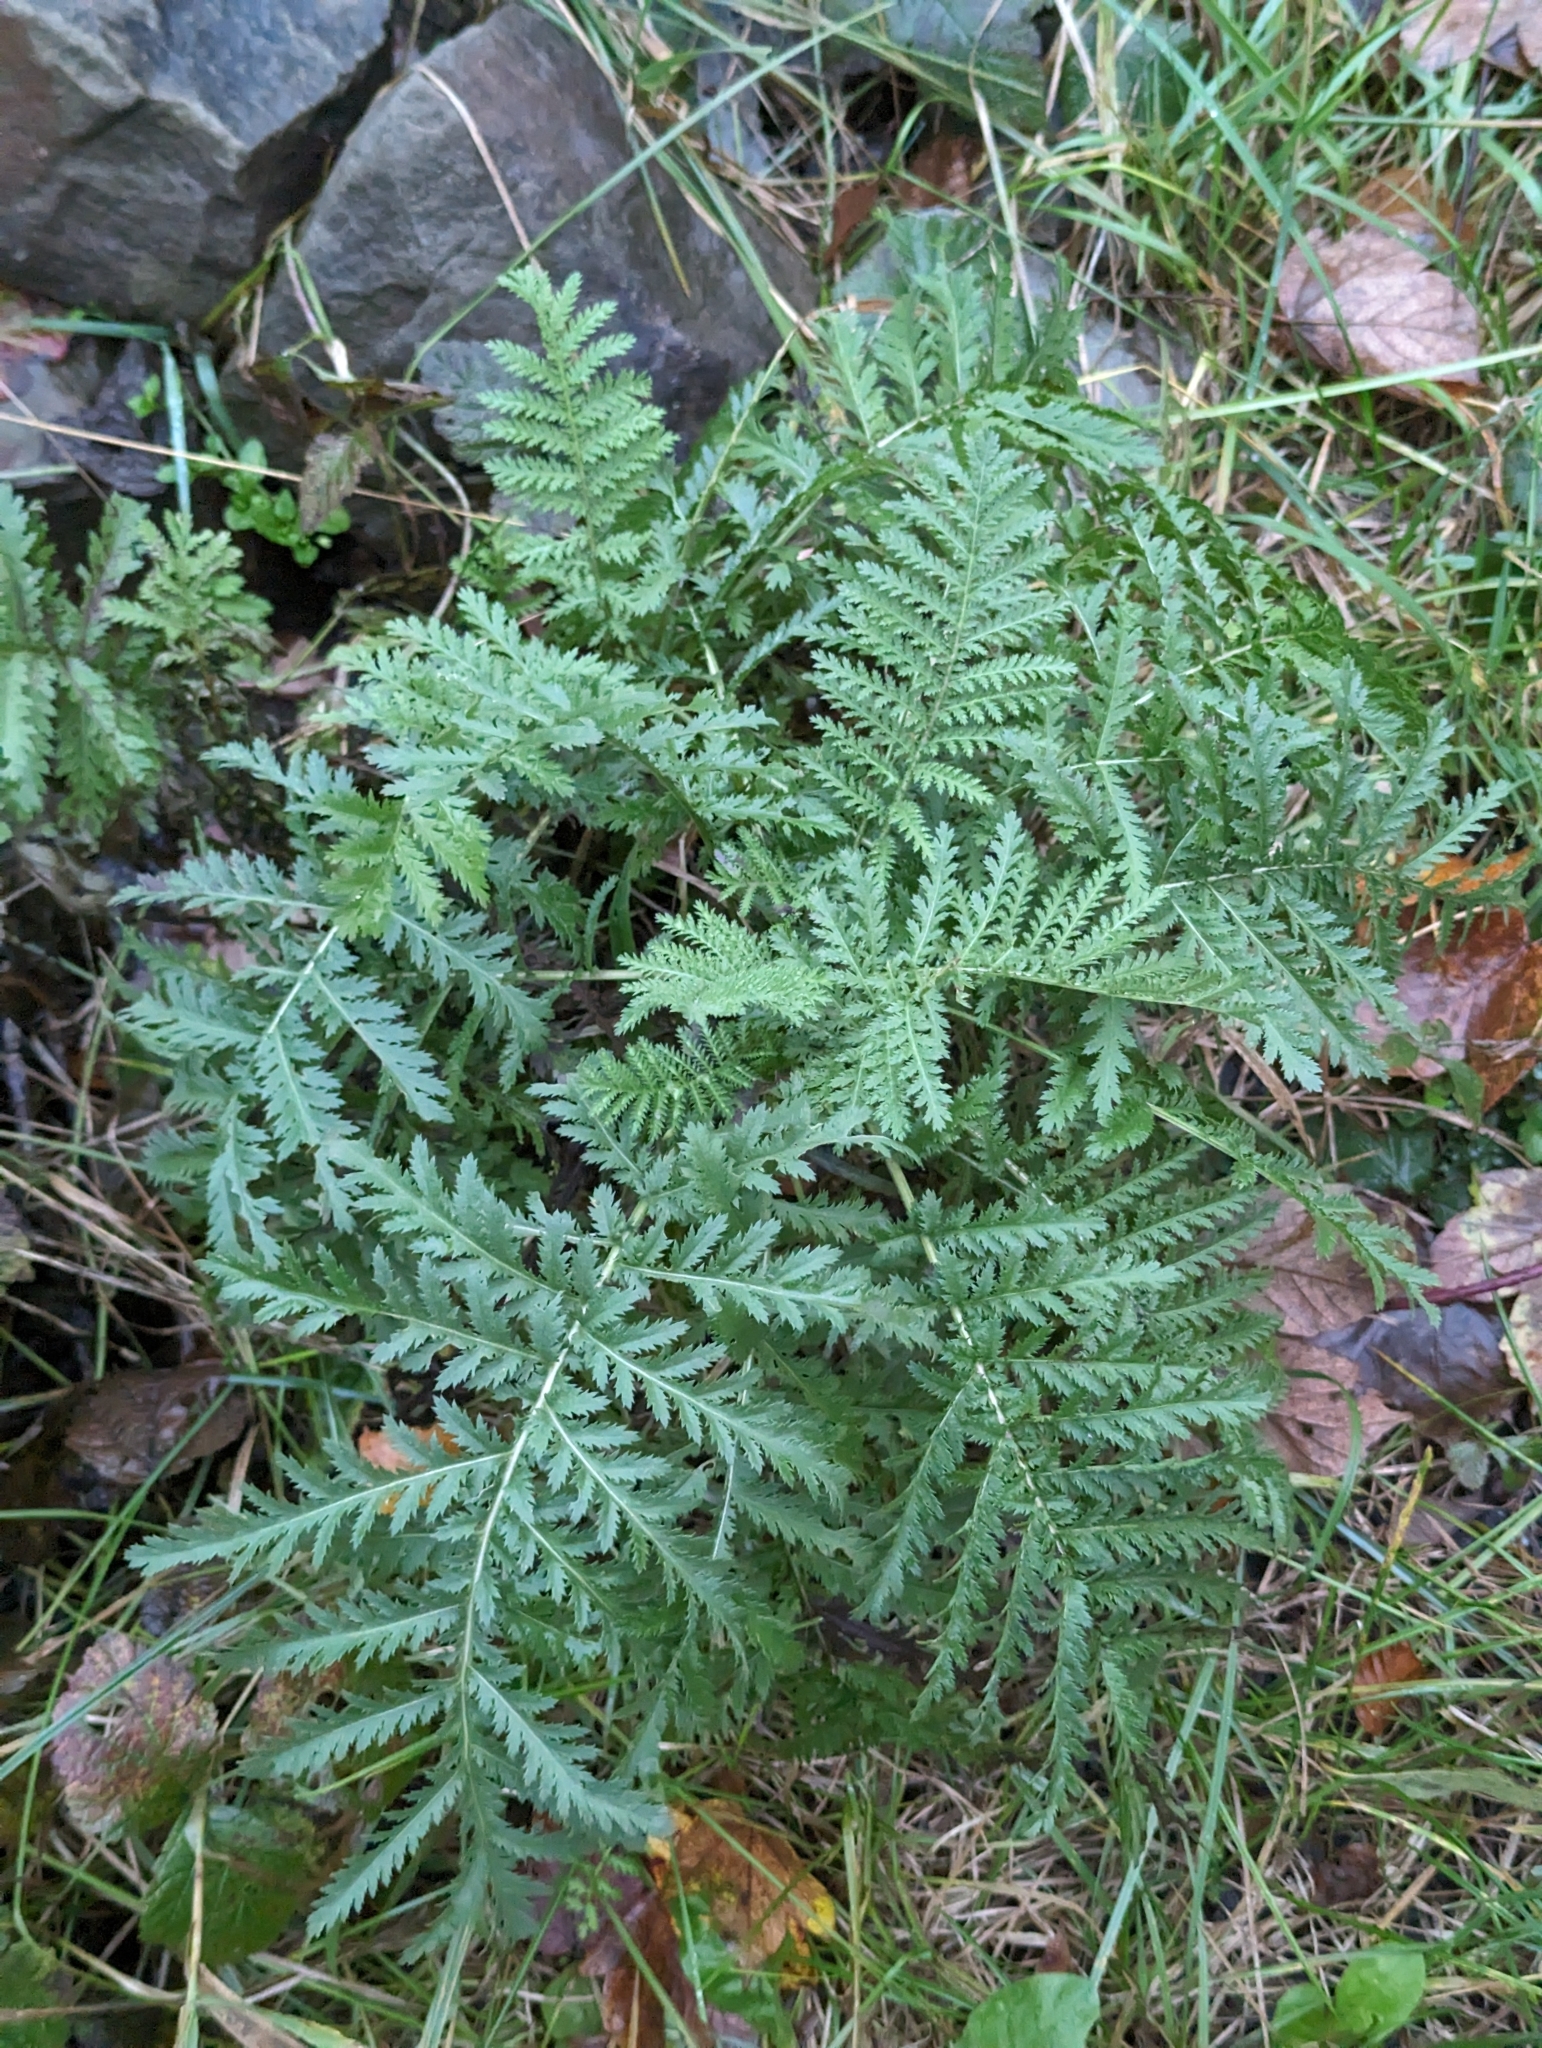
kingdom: Plantae
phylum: Tracheophyta
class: Magnoliopsida
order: Asterales
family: Asteraceae
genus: Tanacetum
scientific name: Tanacetum vulgare
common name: Common tansy
